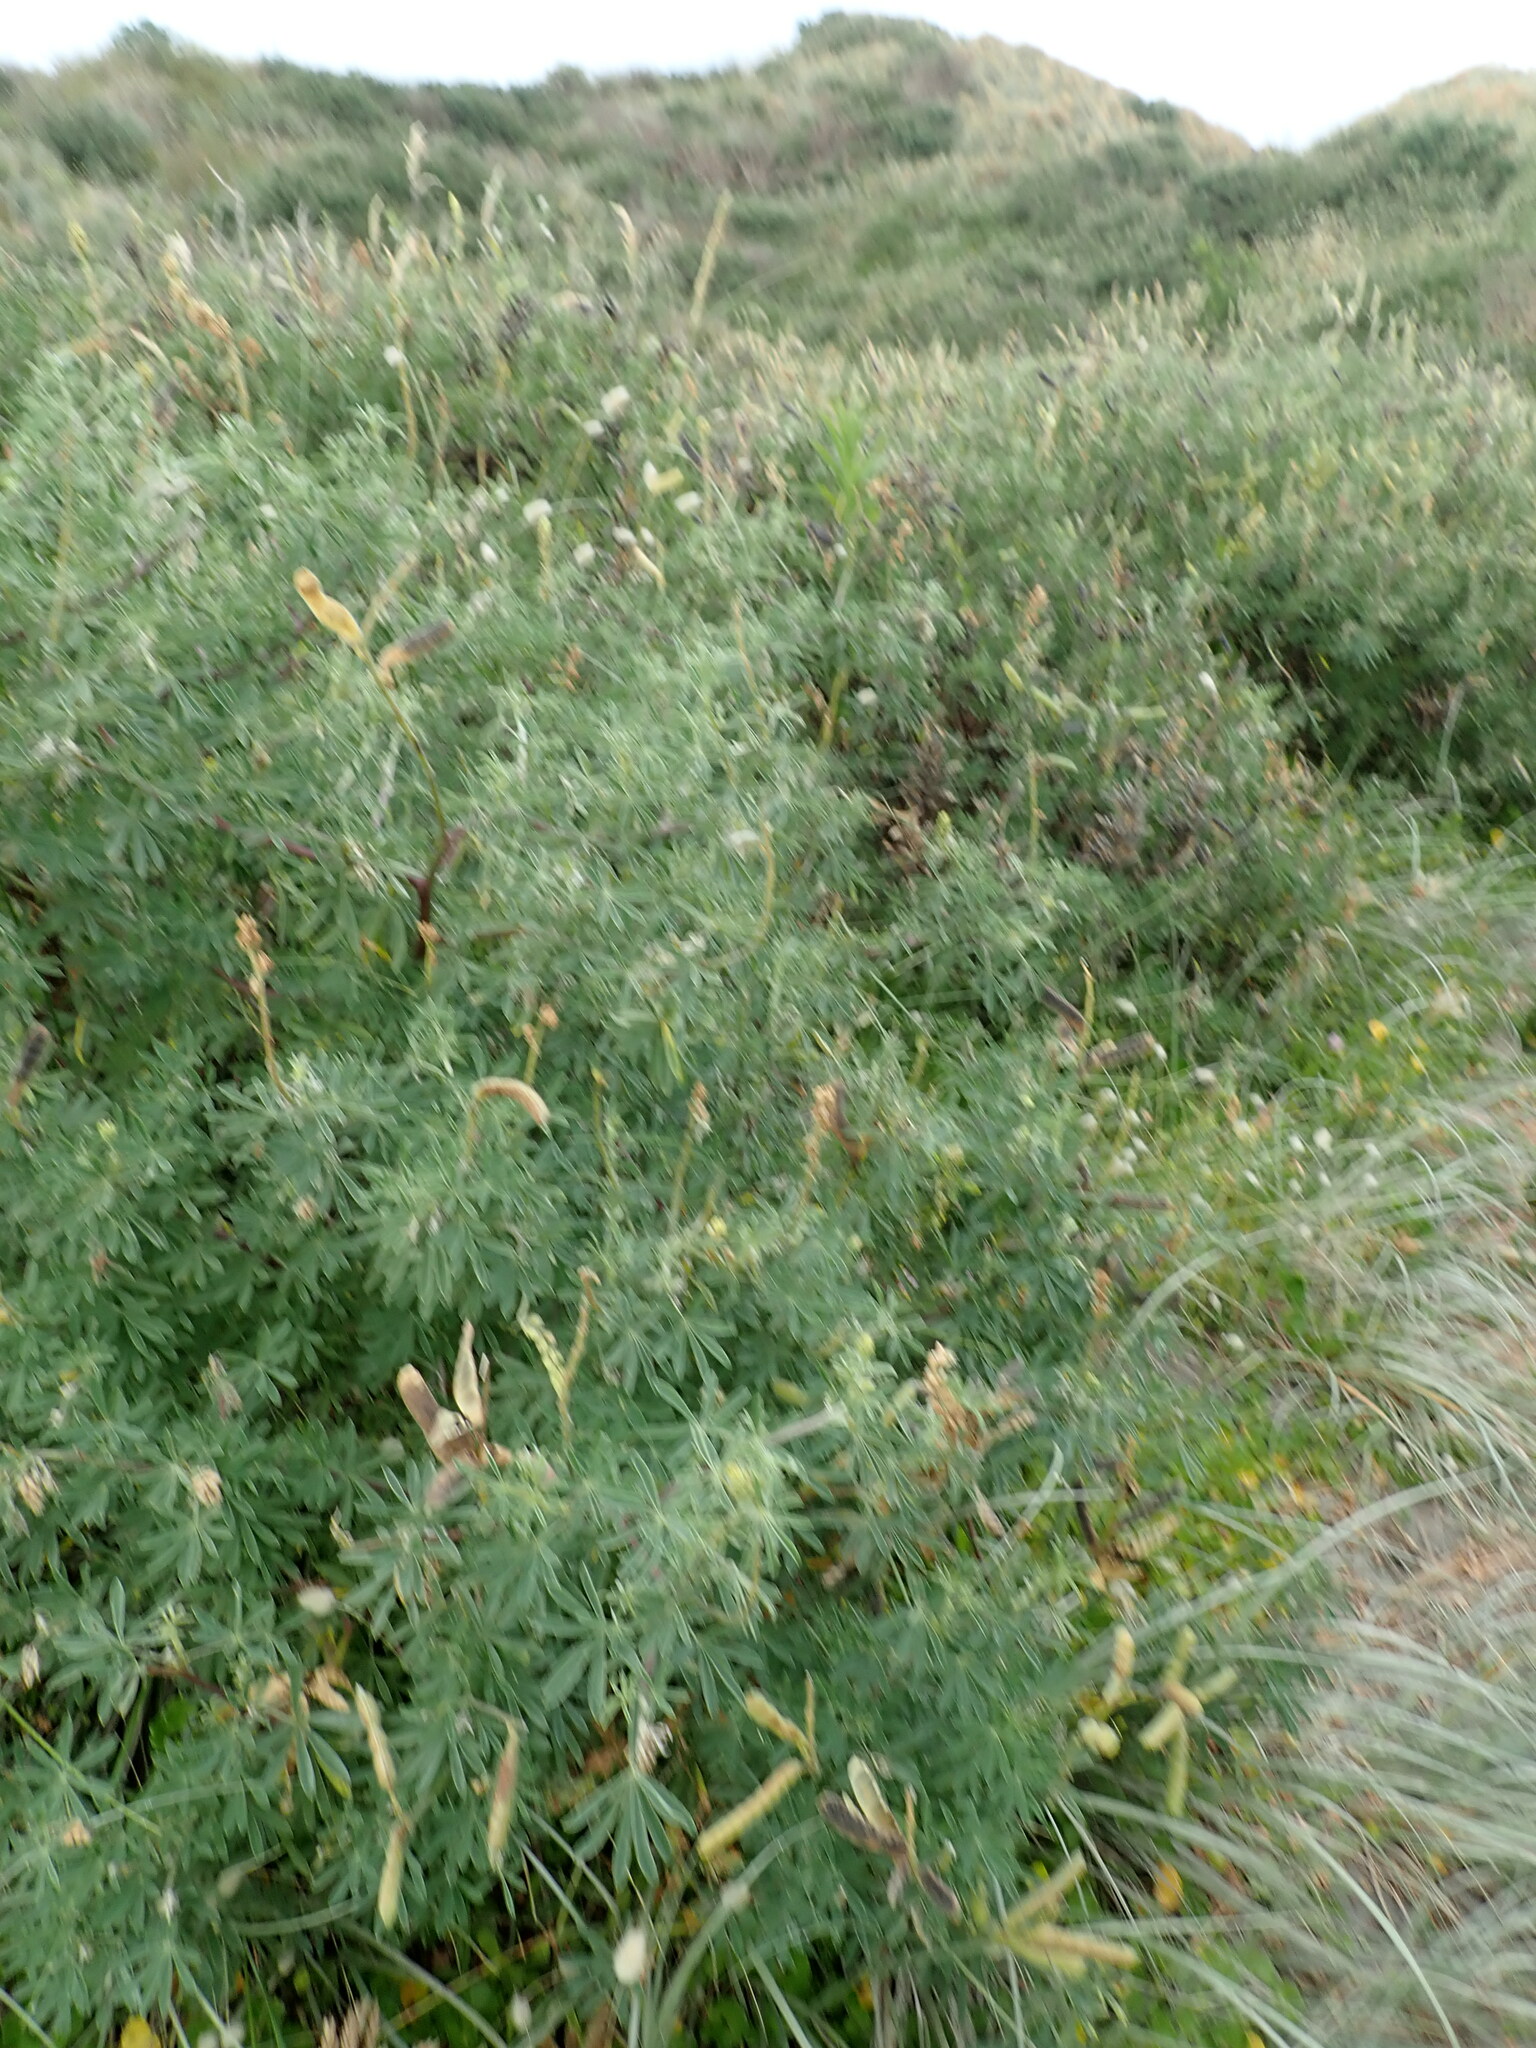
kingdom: Plantae
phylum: Tracheophyta
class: Magnoliopsida
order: Fabales
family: Fabaceae
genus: Lupinus
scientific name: Lupinus arboreus
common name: Yellow bush lupine
